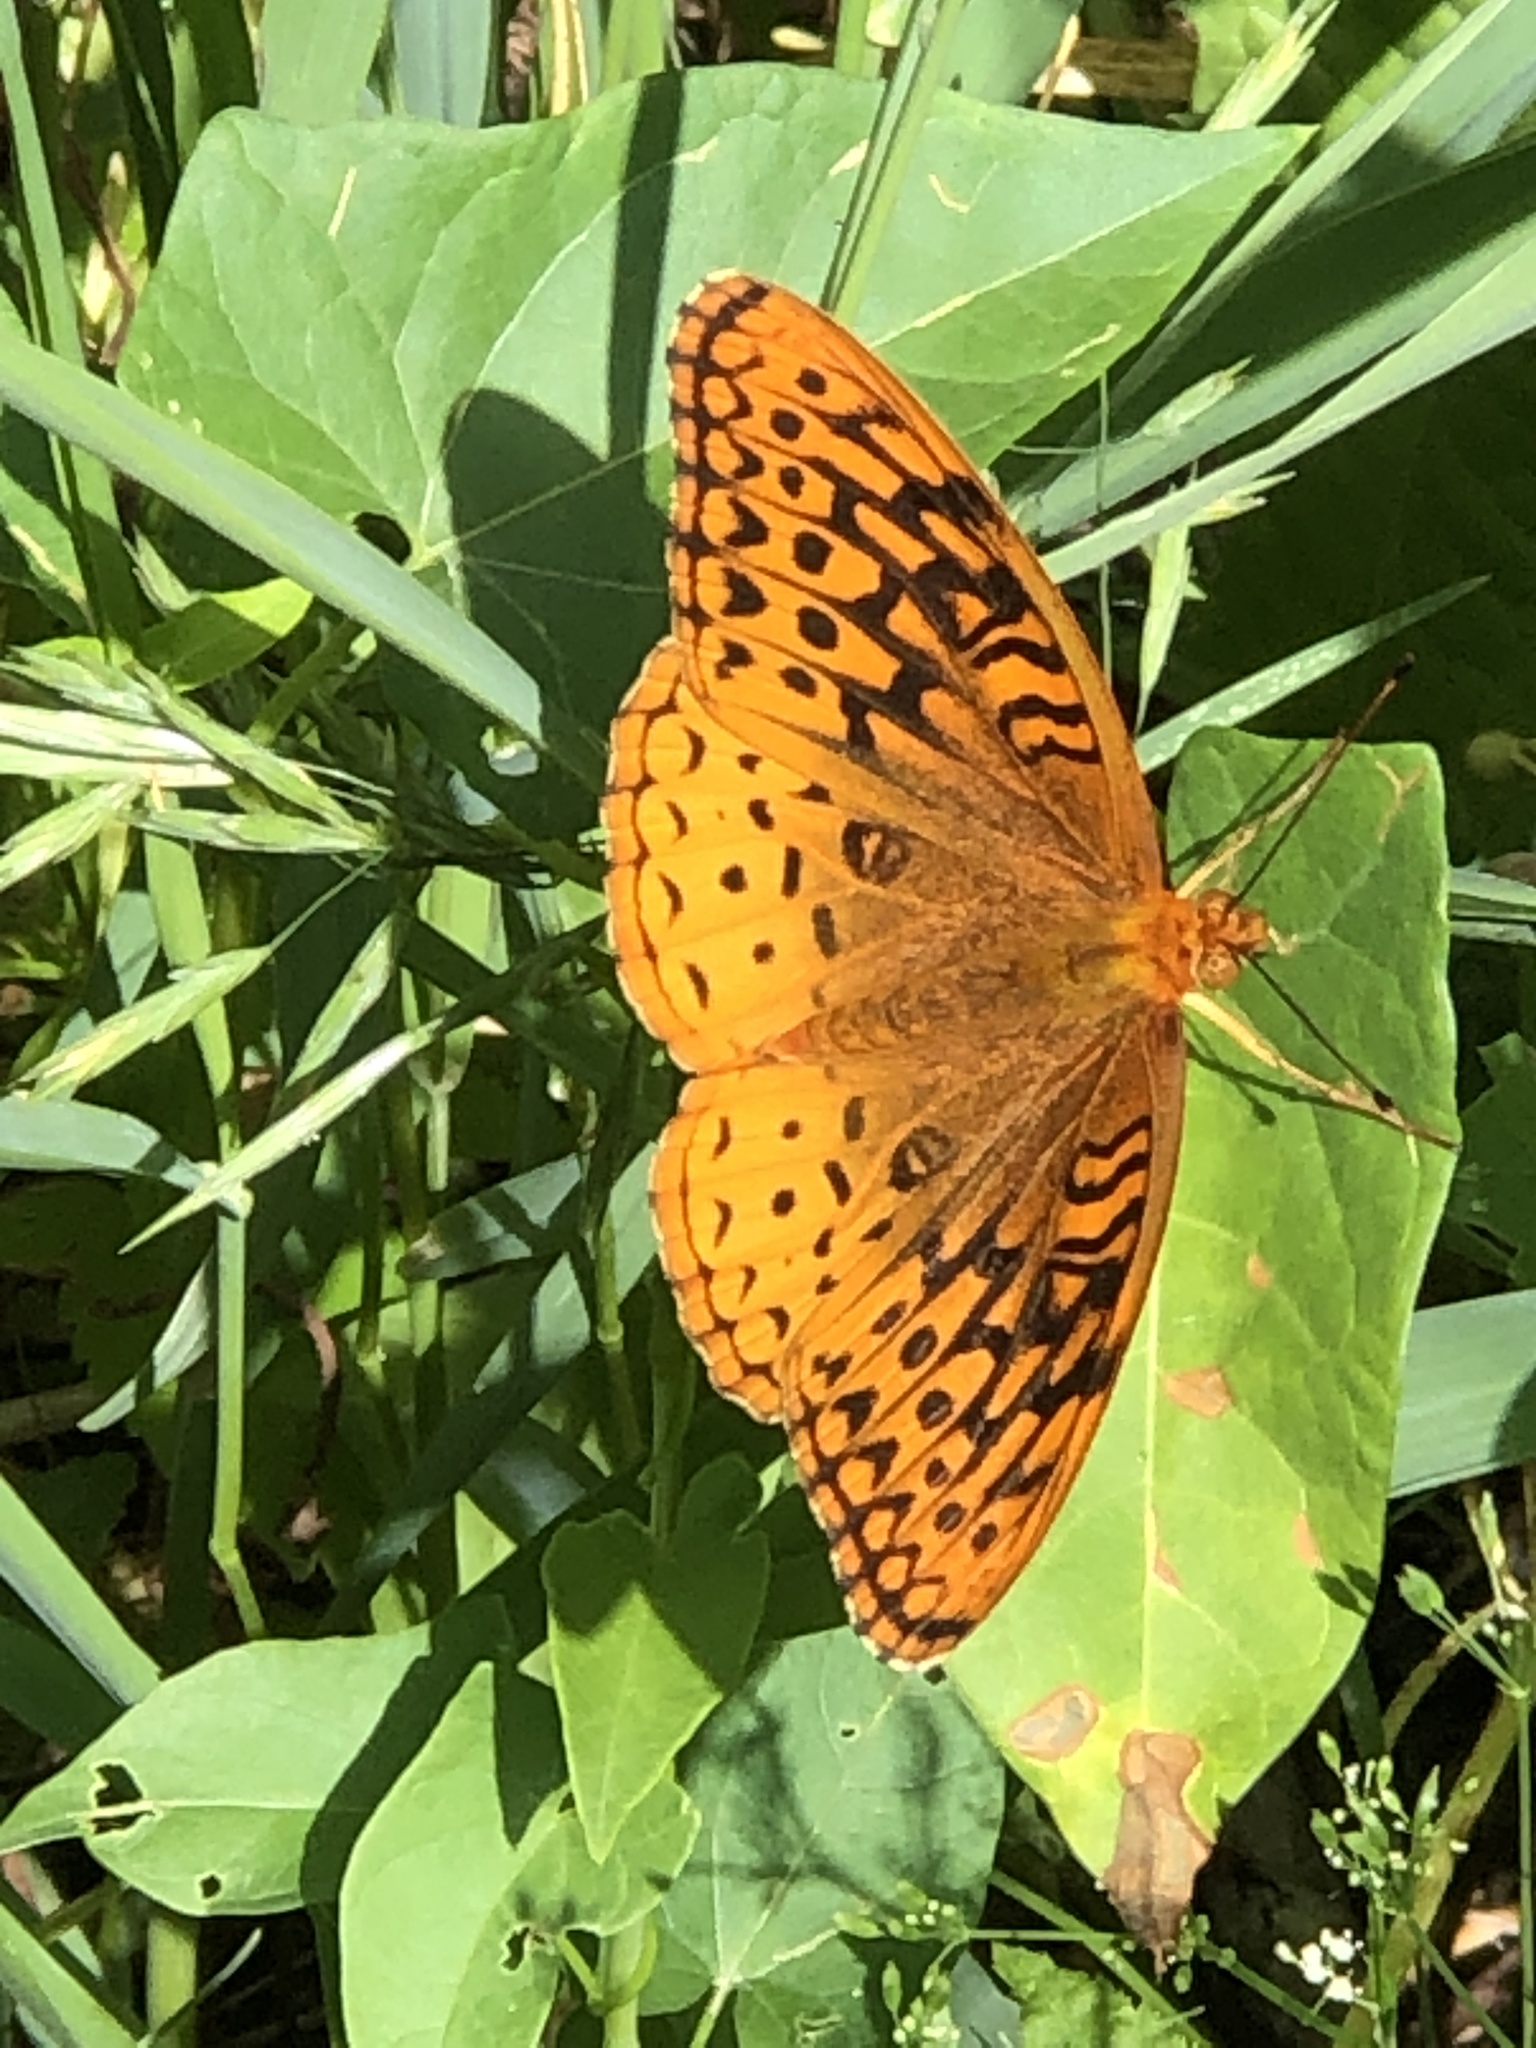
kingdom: Animalia
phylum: Arthropoda
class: Insecta
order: Lepidoptera
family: Nymphalidae
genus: Speyeria
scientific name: Speyeria cybele
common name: Great spangled fritillary
